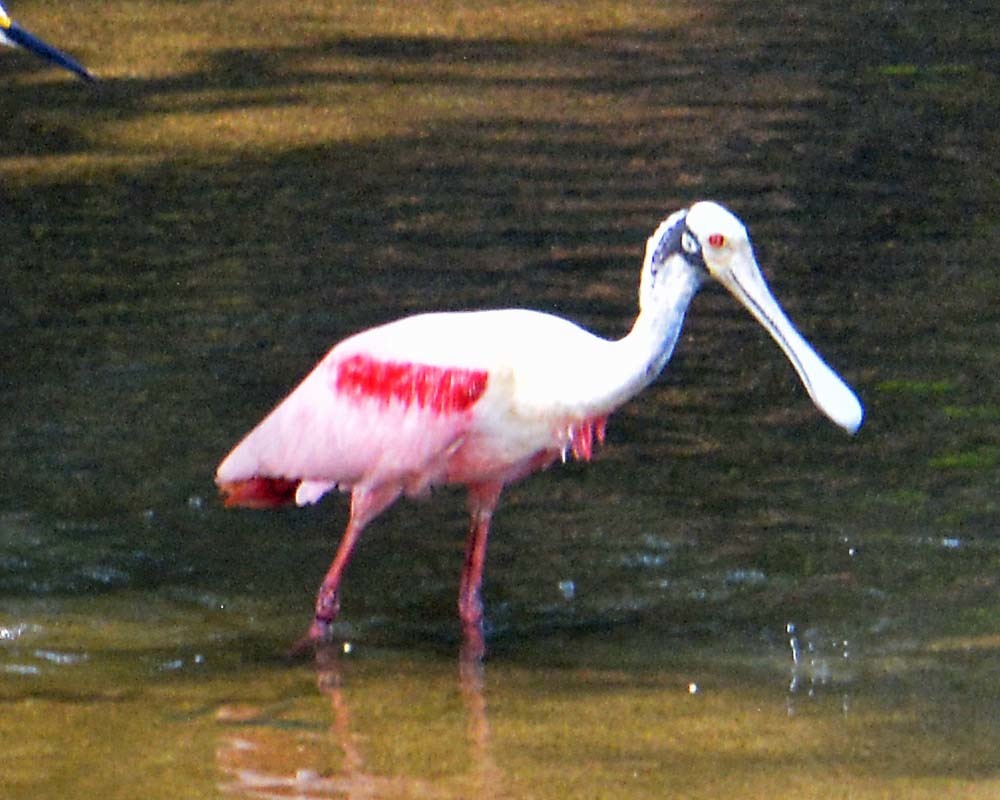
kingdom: Animalia
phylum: Chordata
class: Aves
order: Pelecaniformes
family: Threskiornithidae
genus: Platalea
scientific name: Platalea ajaja
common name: Roseate spoonbill
